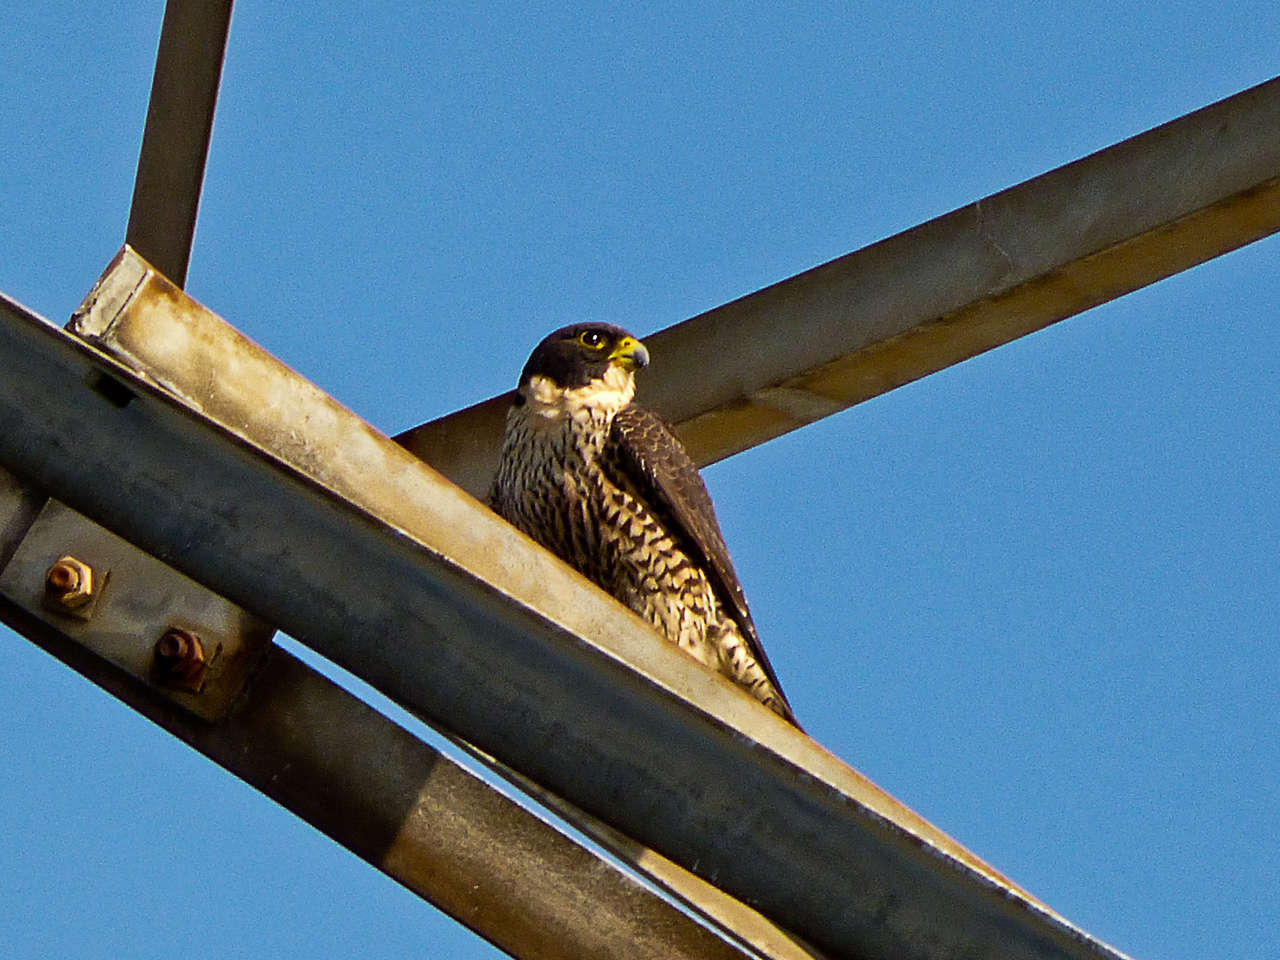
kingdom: Animalia
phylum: Chordata
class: Aves
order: Falconiformes
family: Falconidae
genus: Falco
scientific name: Falco peregrinus
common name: Peregrine falcon
